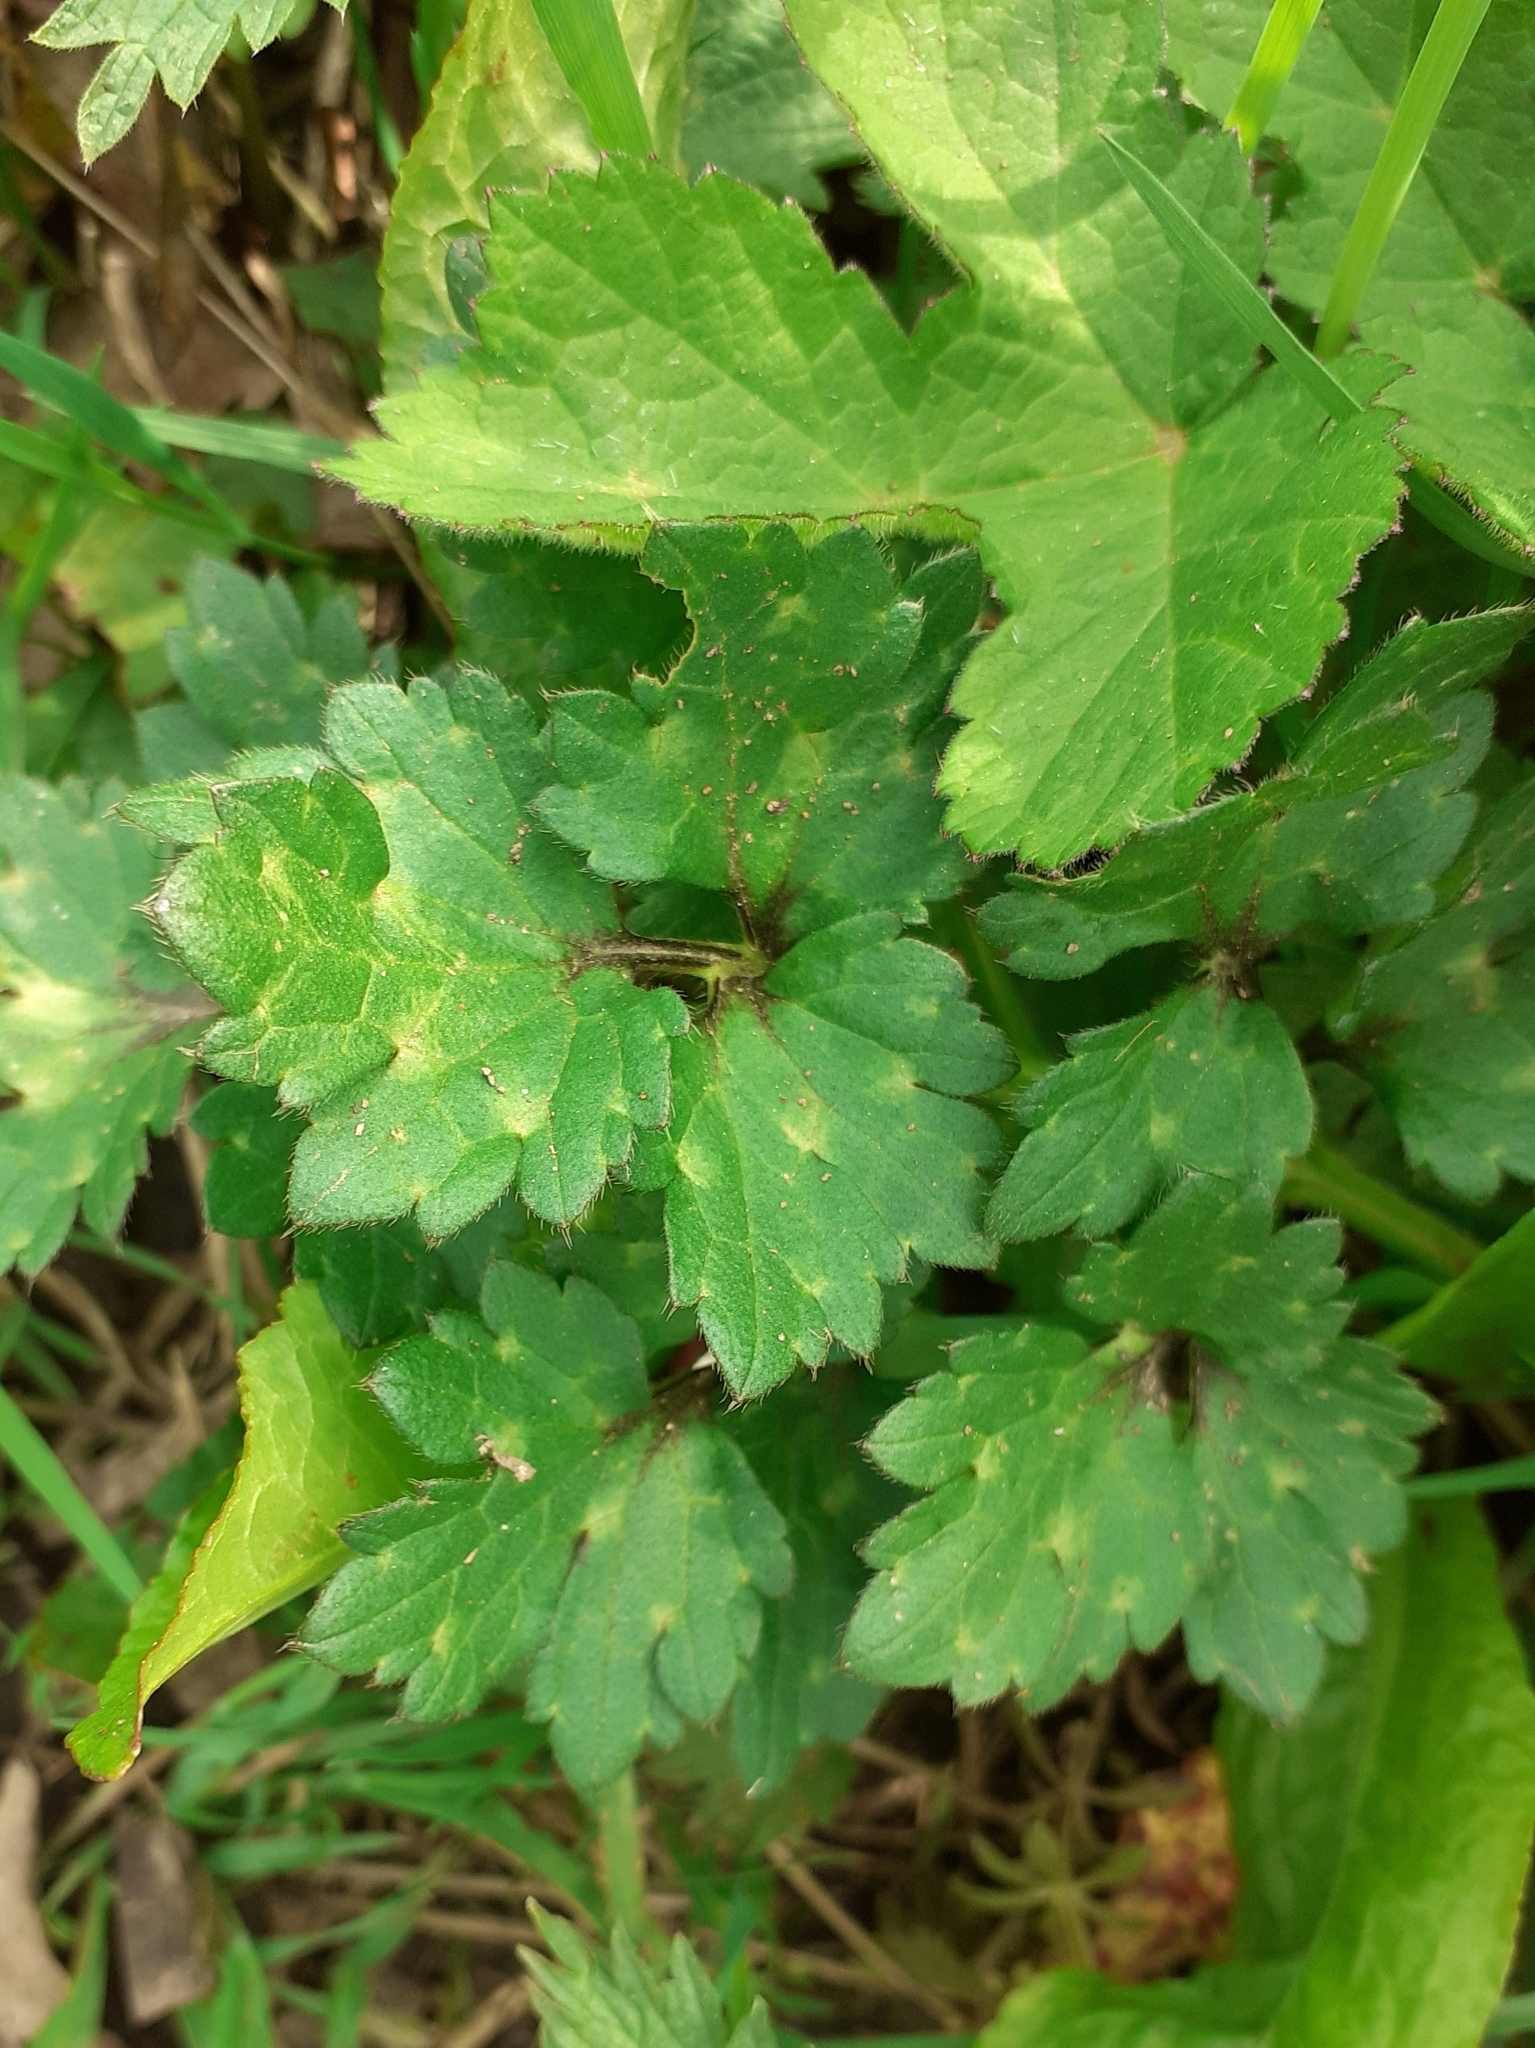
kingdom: Plantae
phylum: Tracheophyta
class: Magnoliopsida
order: Ranunculales
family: Ranunculaceae
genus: Ranunculus
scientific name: Ranunculus repens
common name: Creeping buttercup
